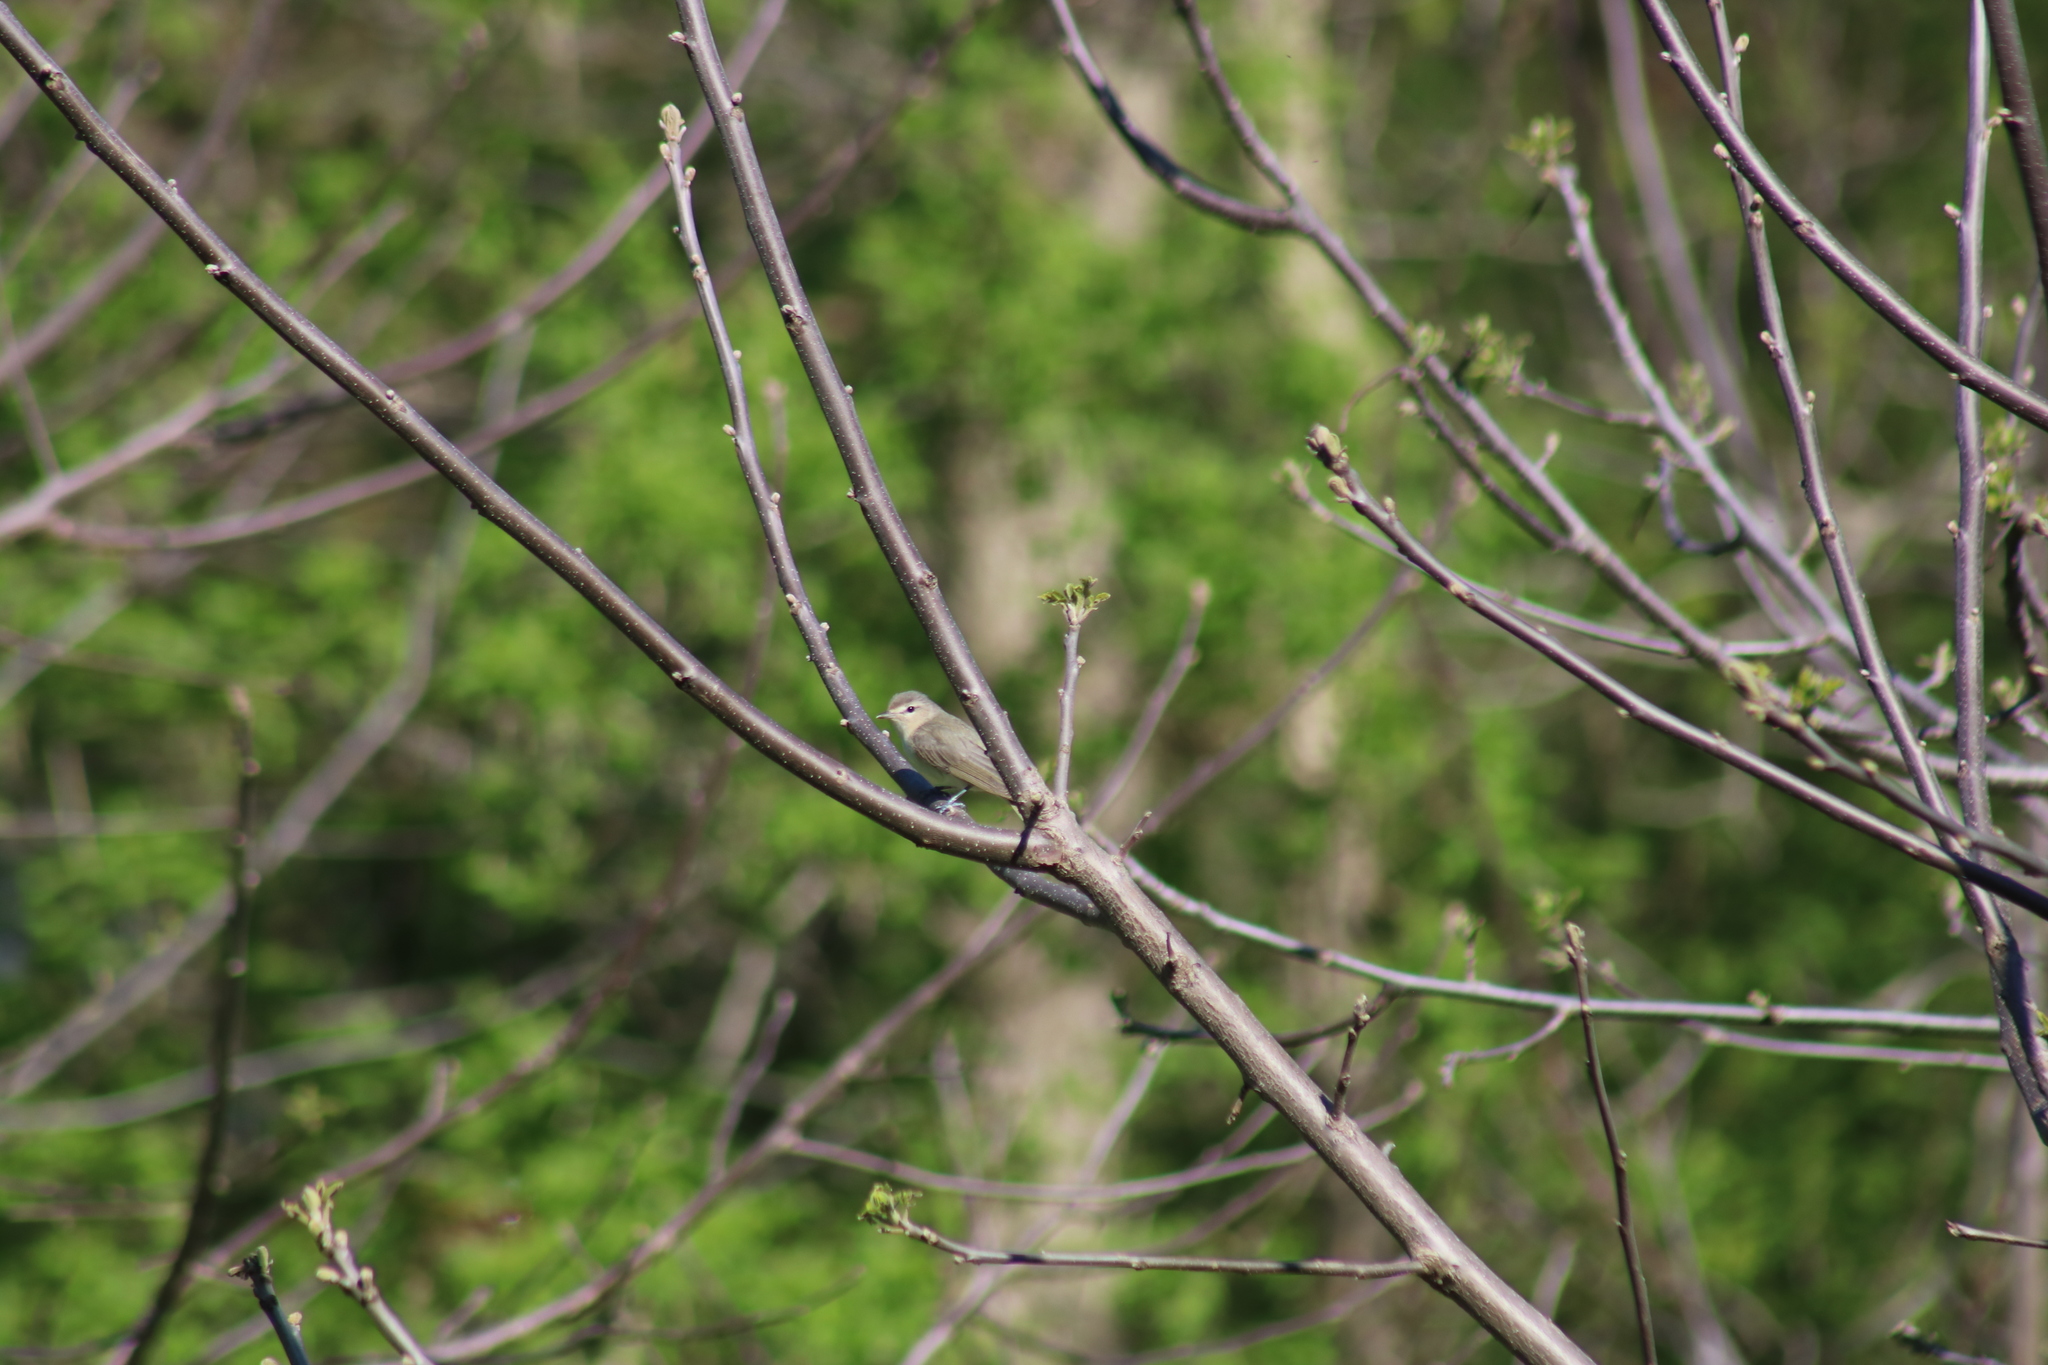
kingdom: Animalia
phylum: Chordata
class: Aves
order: Passeriformes
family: Vireonidae
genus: Vireo
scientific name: Vireo gilvus
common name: Warbling vireo
